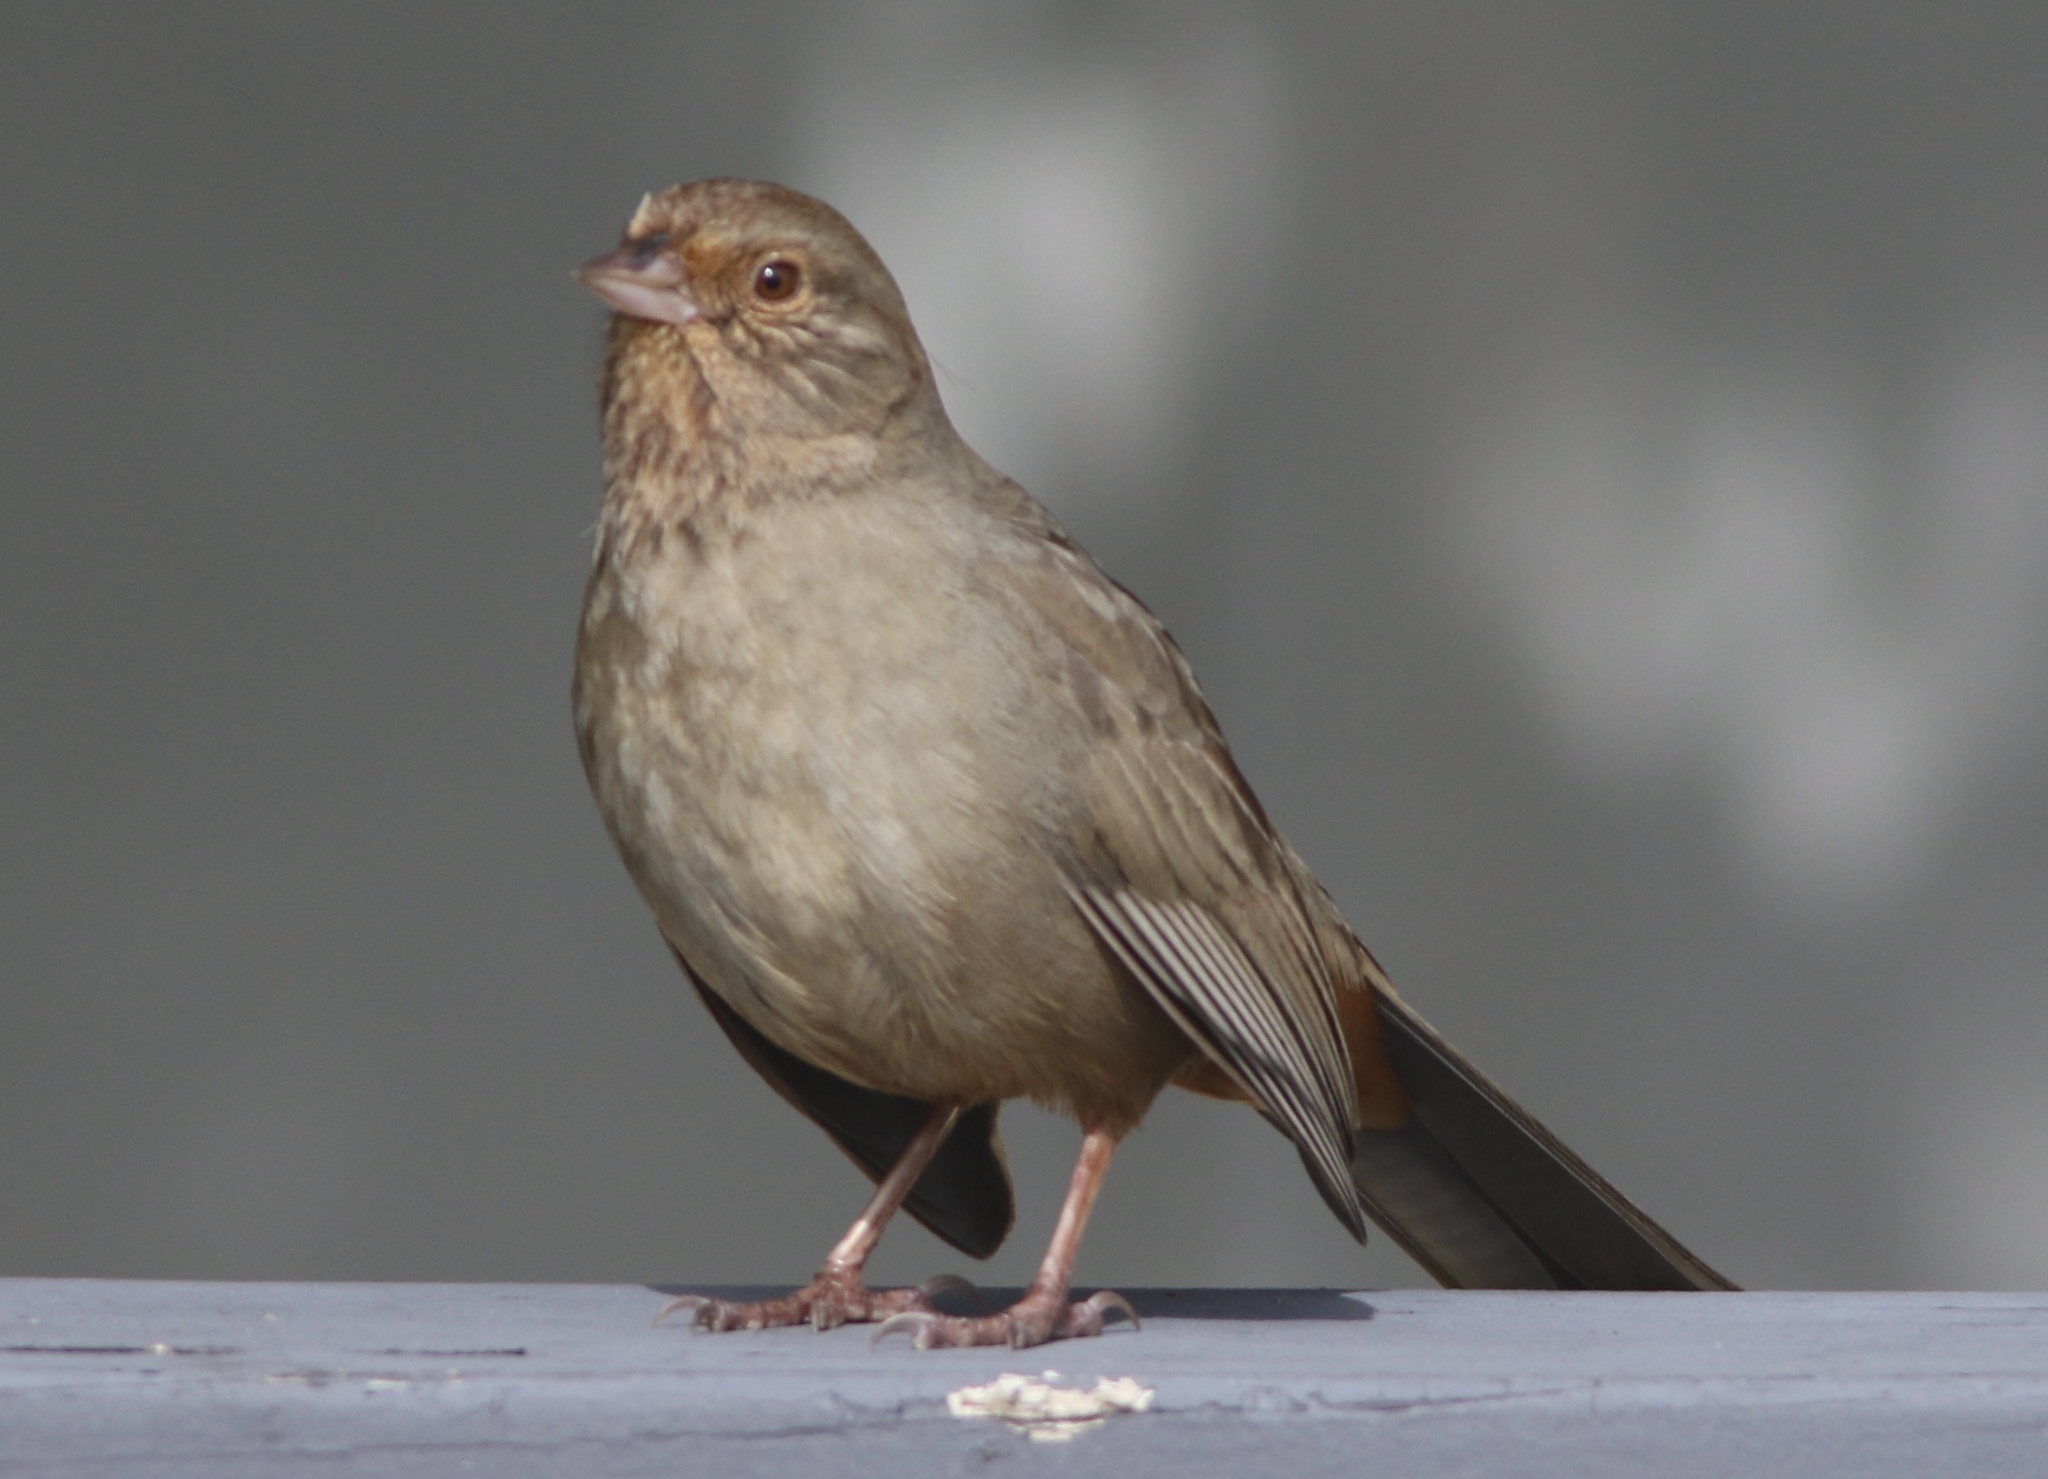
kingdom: Animalia
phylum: Chordata
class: Aves
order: Passeriformes
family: Passerellidae
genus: Melozone
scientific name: Melozone crissalis
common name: California towhee
